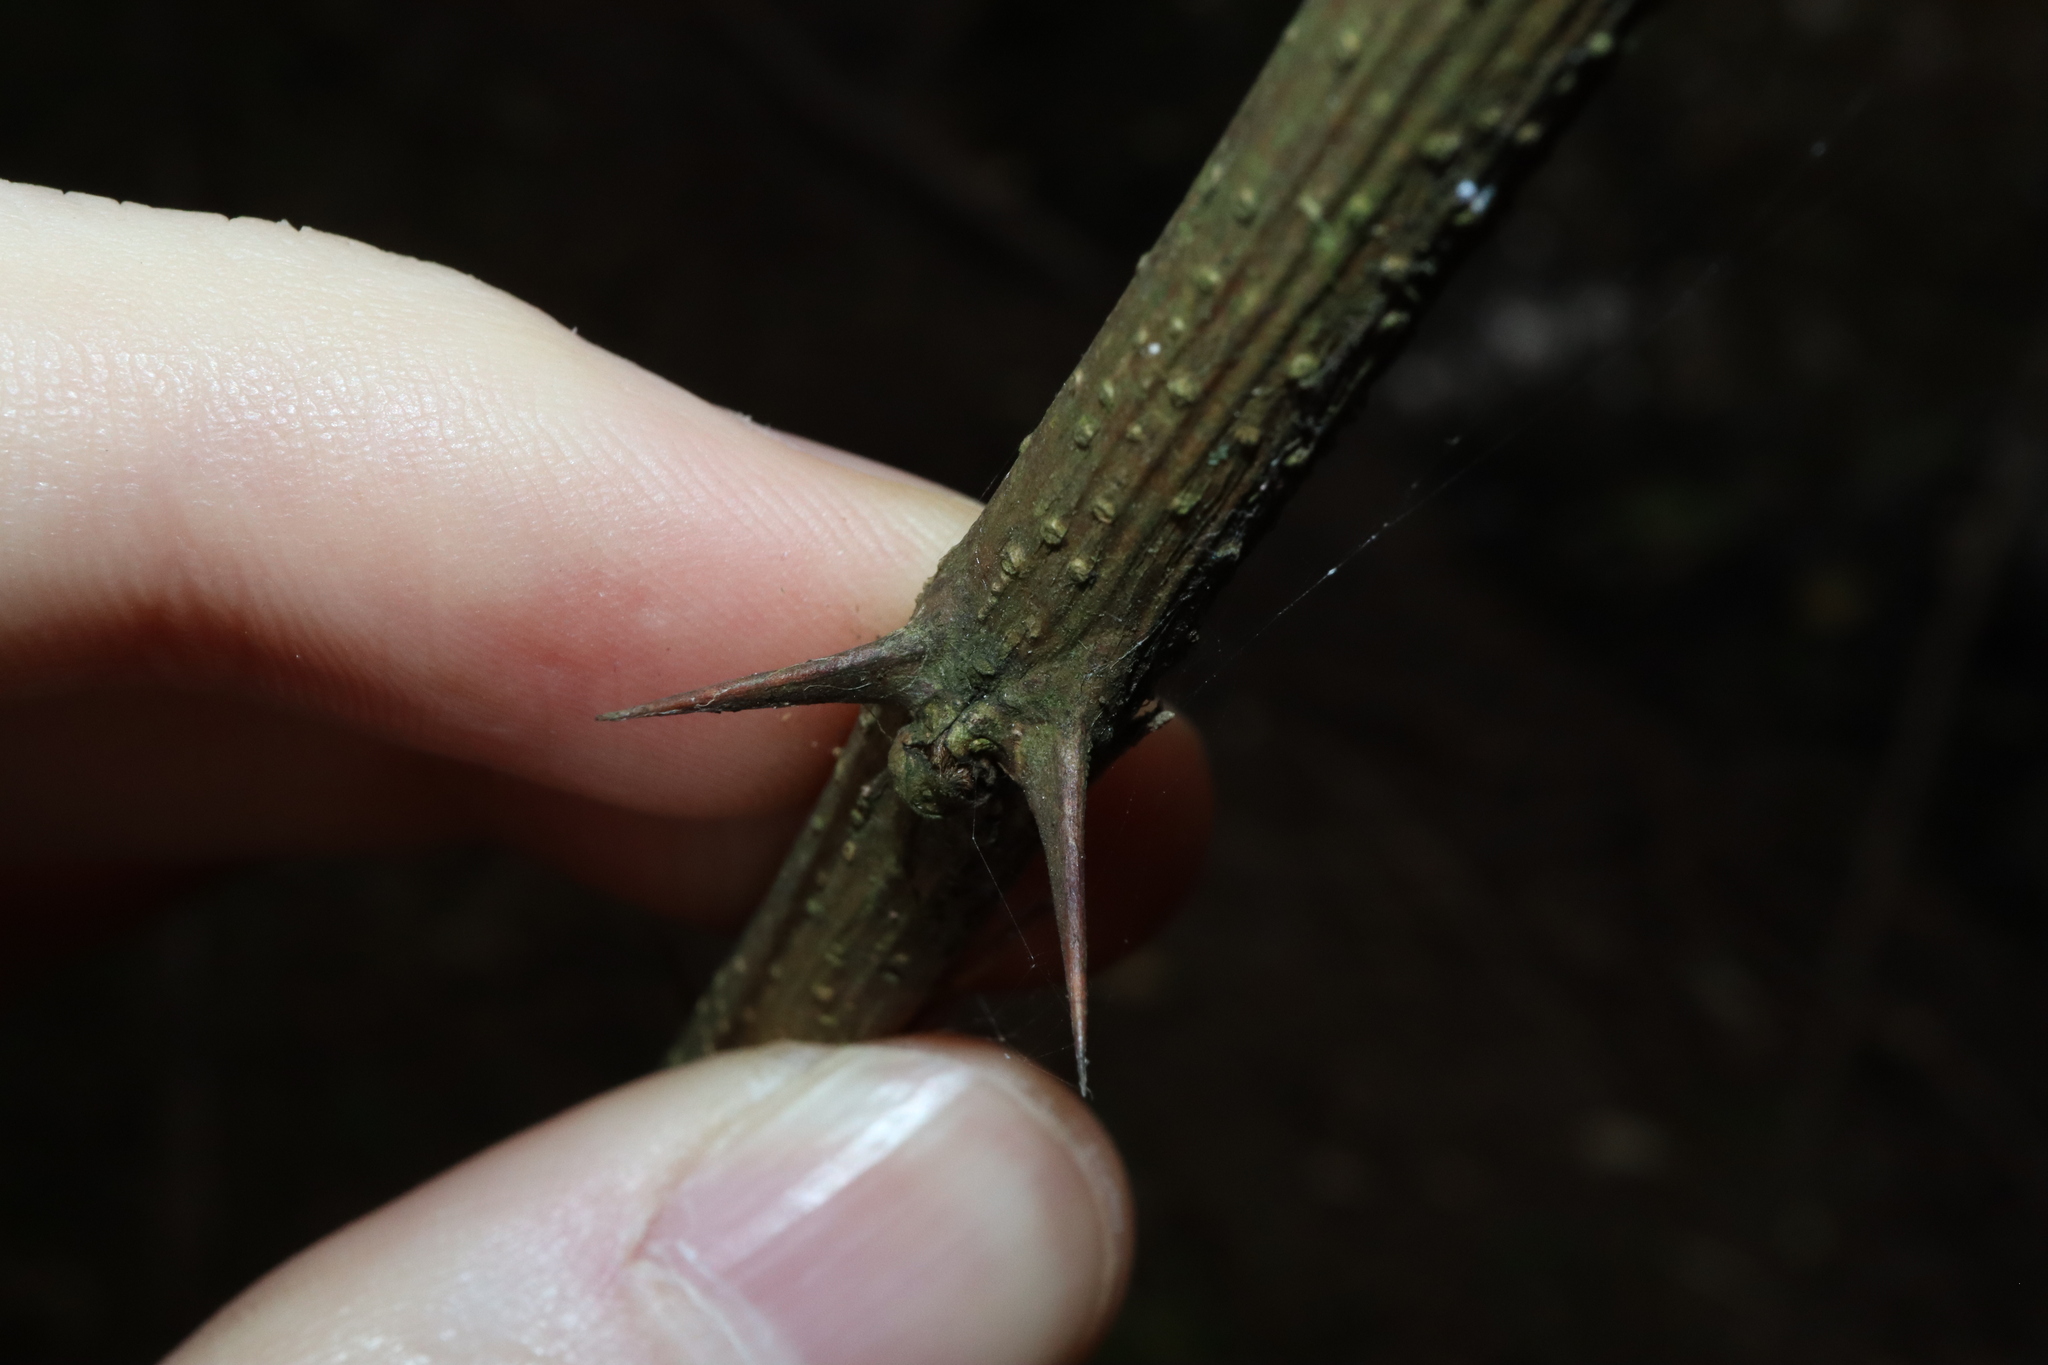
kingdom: Plantae
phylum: Tracheophyta
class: Magnoliopsida
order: Fabales
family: Fabaceae
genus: Robinia
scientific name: Robinia pseudoacacia
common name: Black locust
